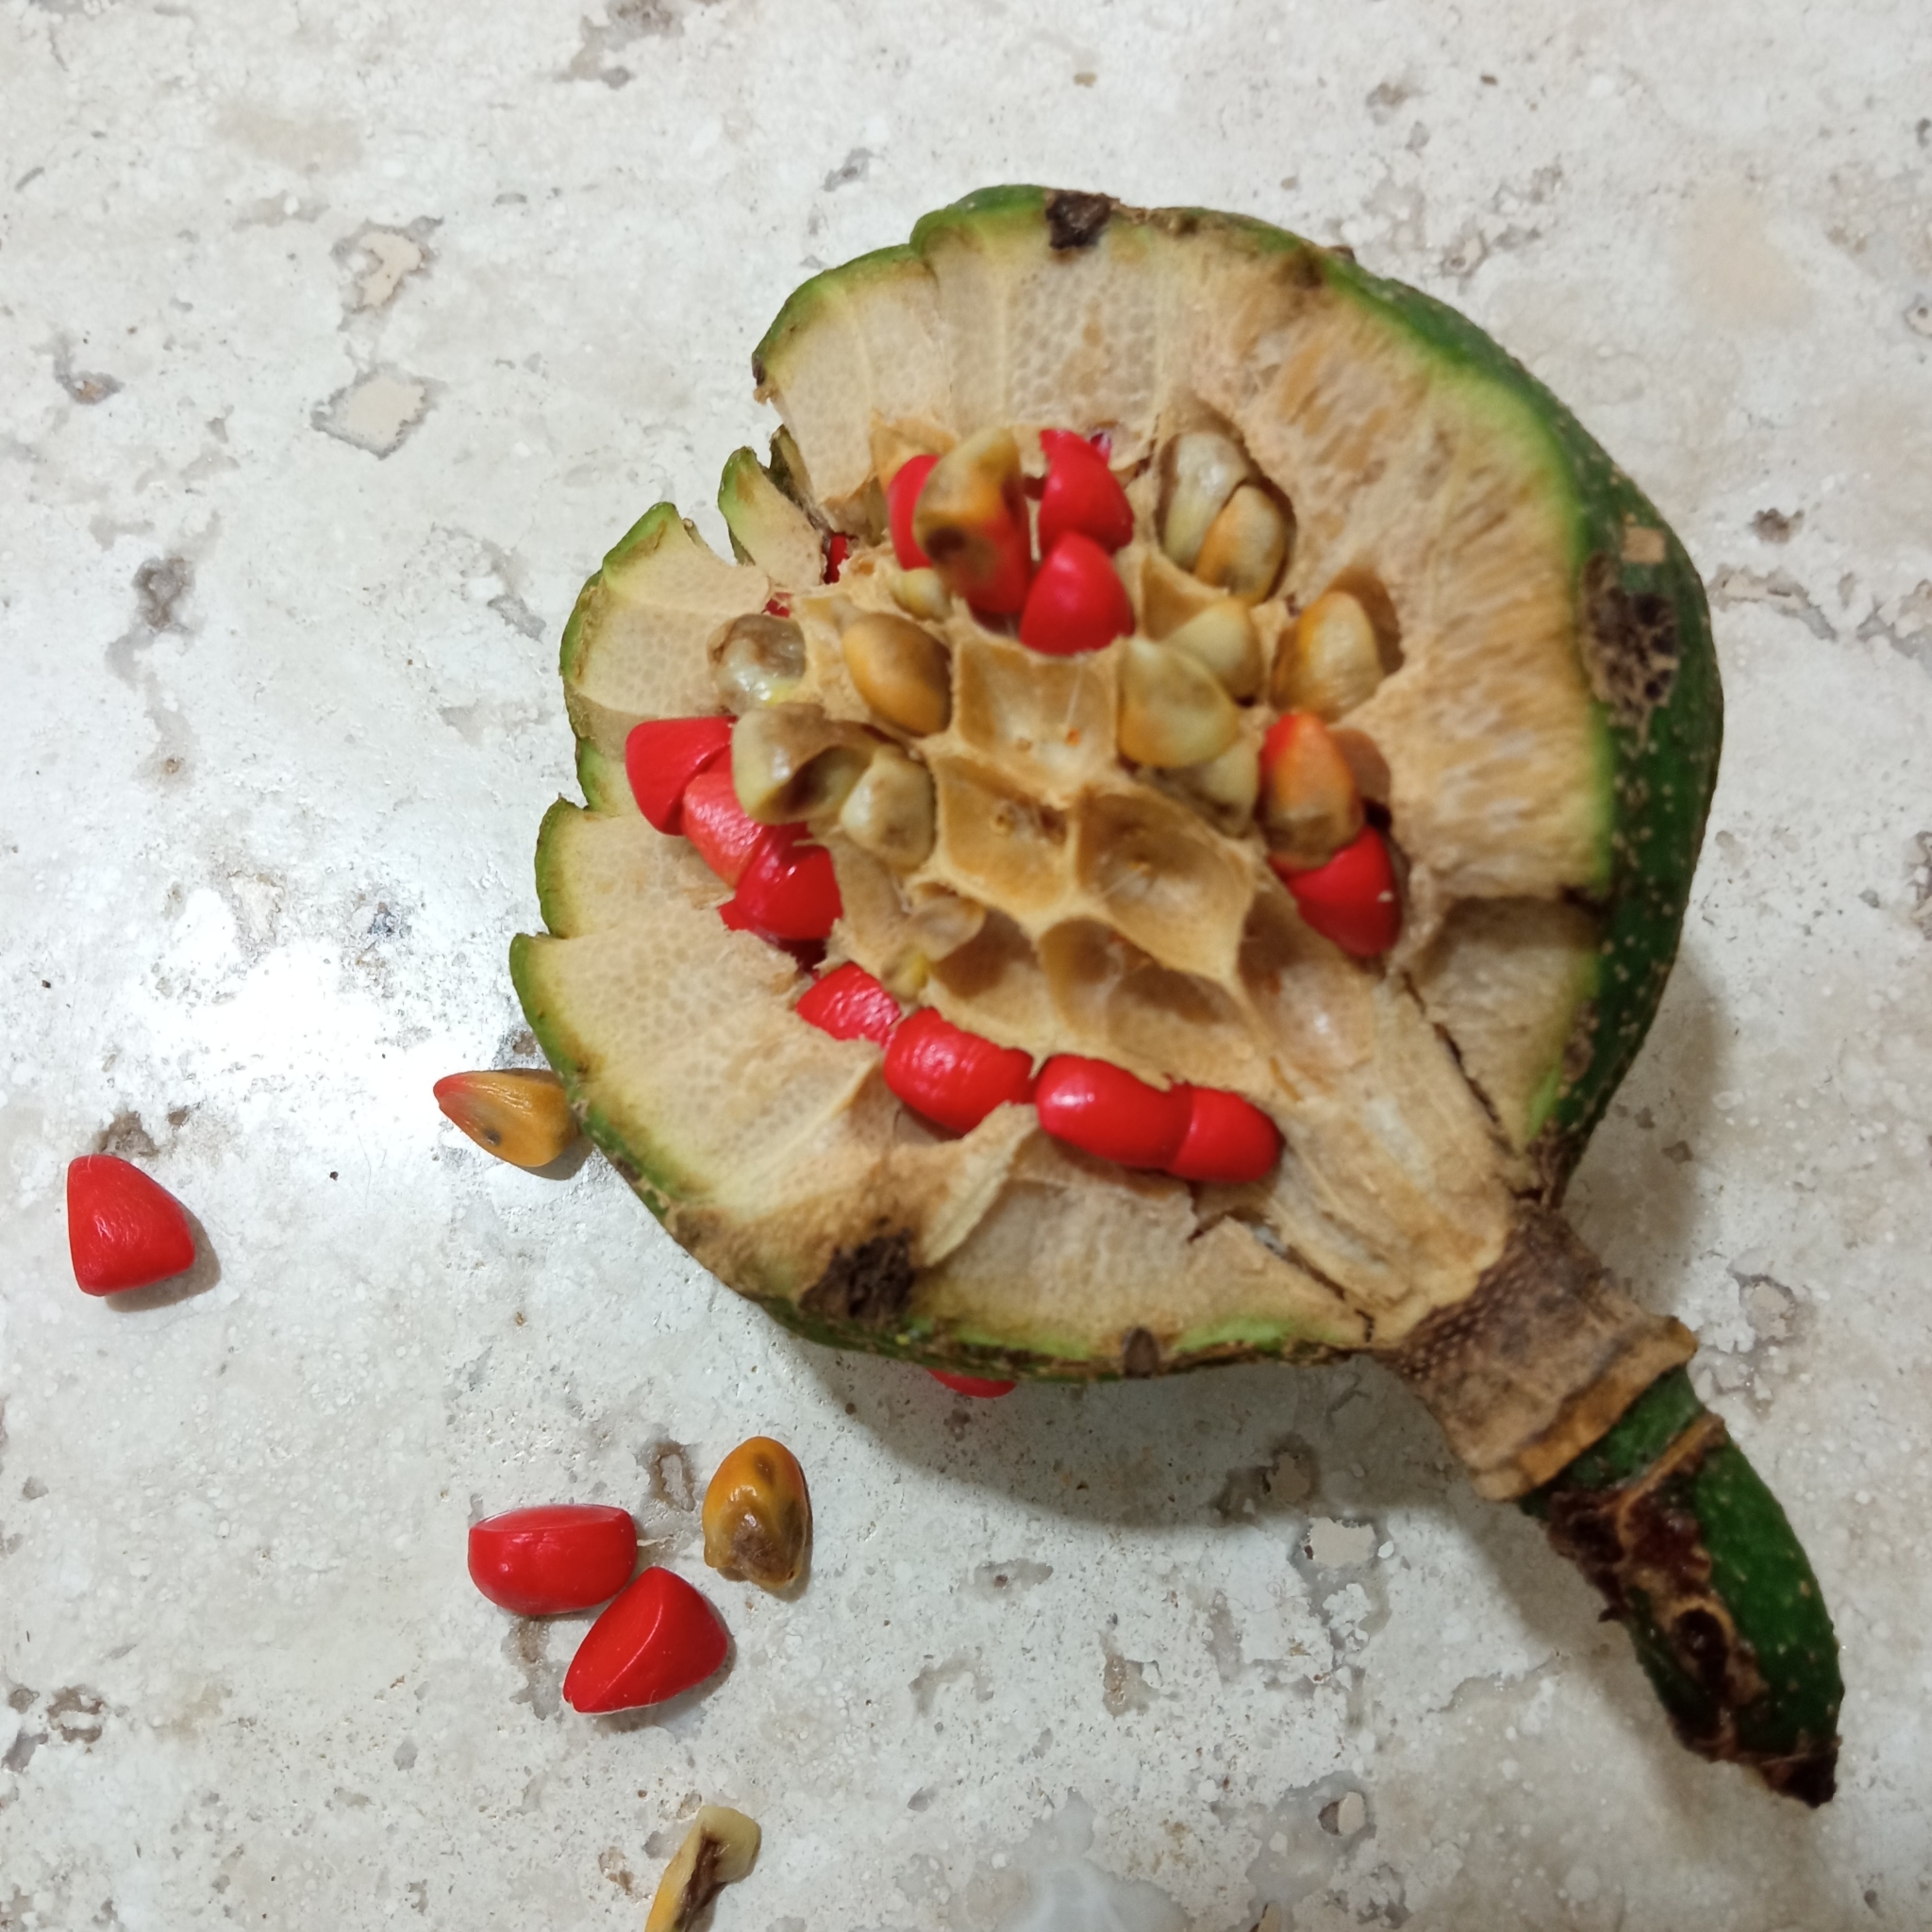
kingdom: Plantae
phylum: Tracheophyta
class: Magnoliopsida
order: Magnoliales
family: Magnoliaceae
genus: Magnolia
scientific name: Magnolia ovata
